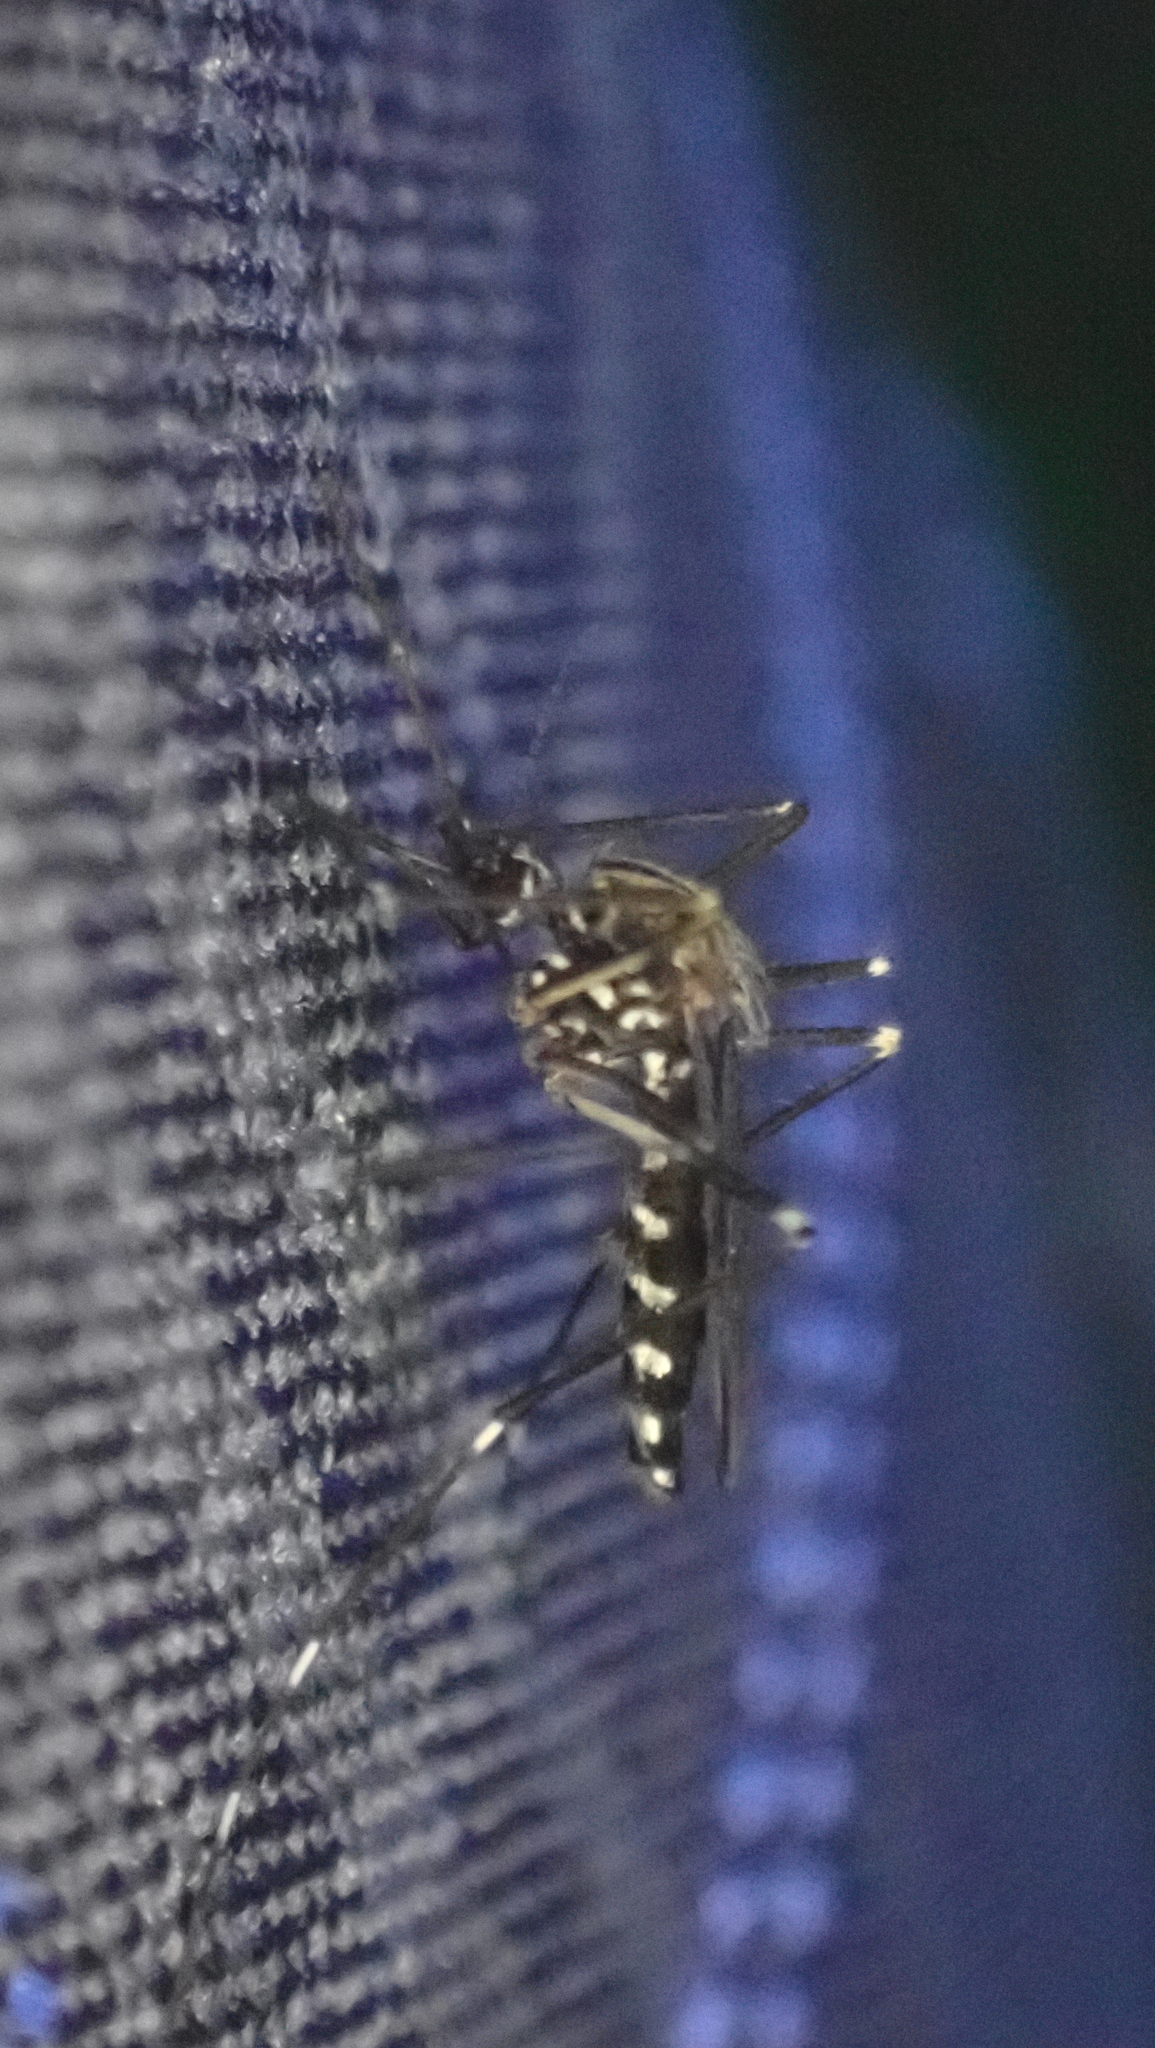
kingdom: Animalia
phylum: Arthropoda
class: Insecta
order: Diptera
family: Culicidae
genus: Aedes
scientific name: Aedes japonicus
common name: Asian bush mosquito
